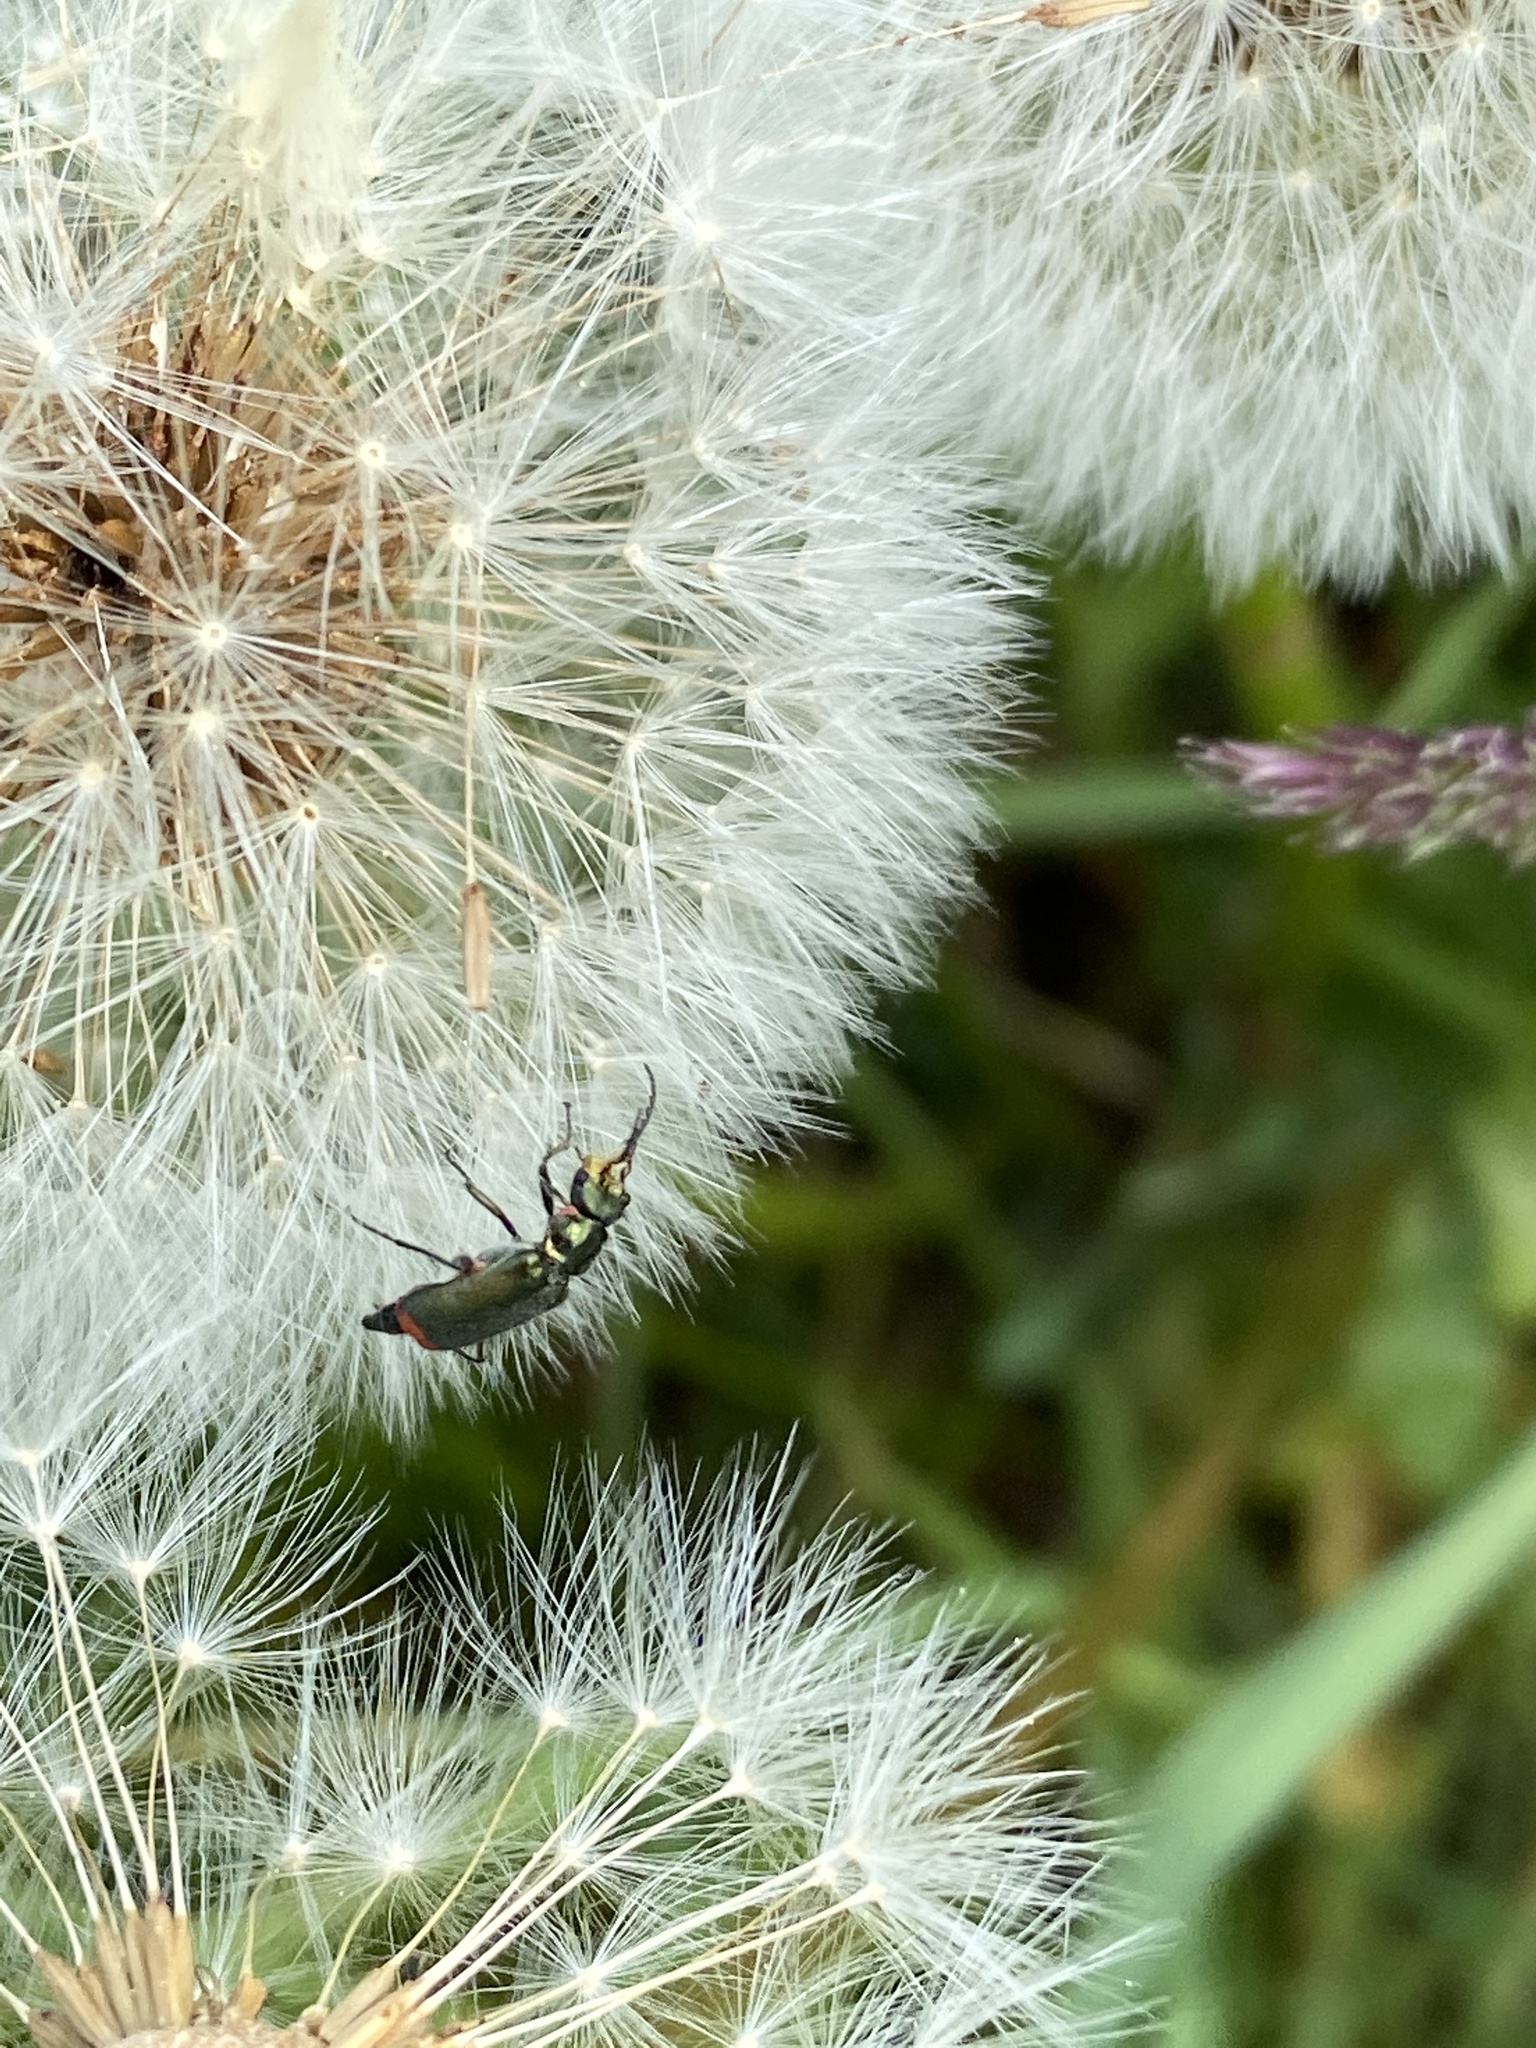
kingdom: Animalia
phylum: Arthropoda
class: Insecta
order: Coleoptera
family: Melyridae
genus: Malachius
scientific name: Malachius bipustulatus
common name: Malachite beetle
